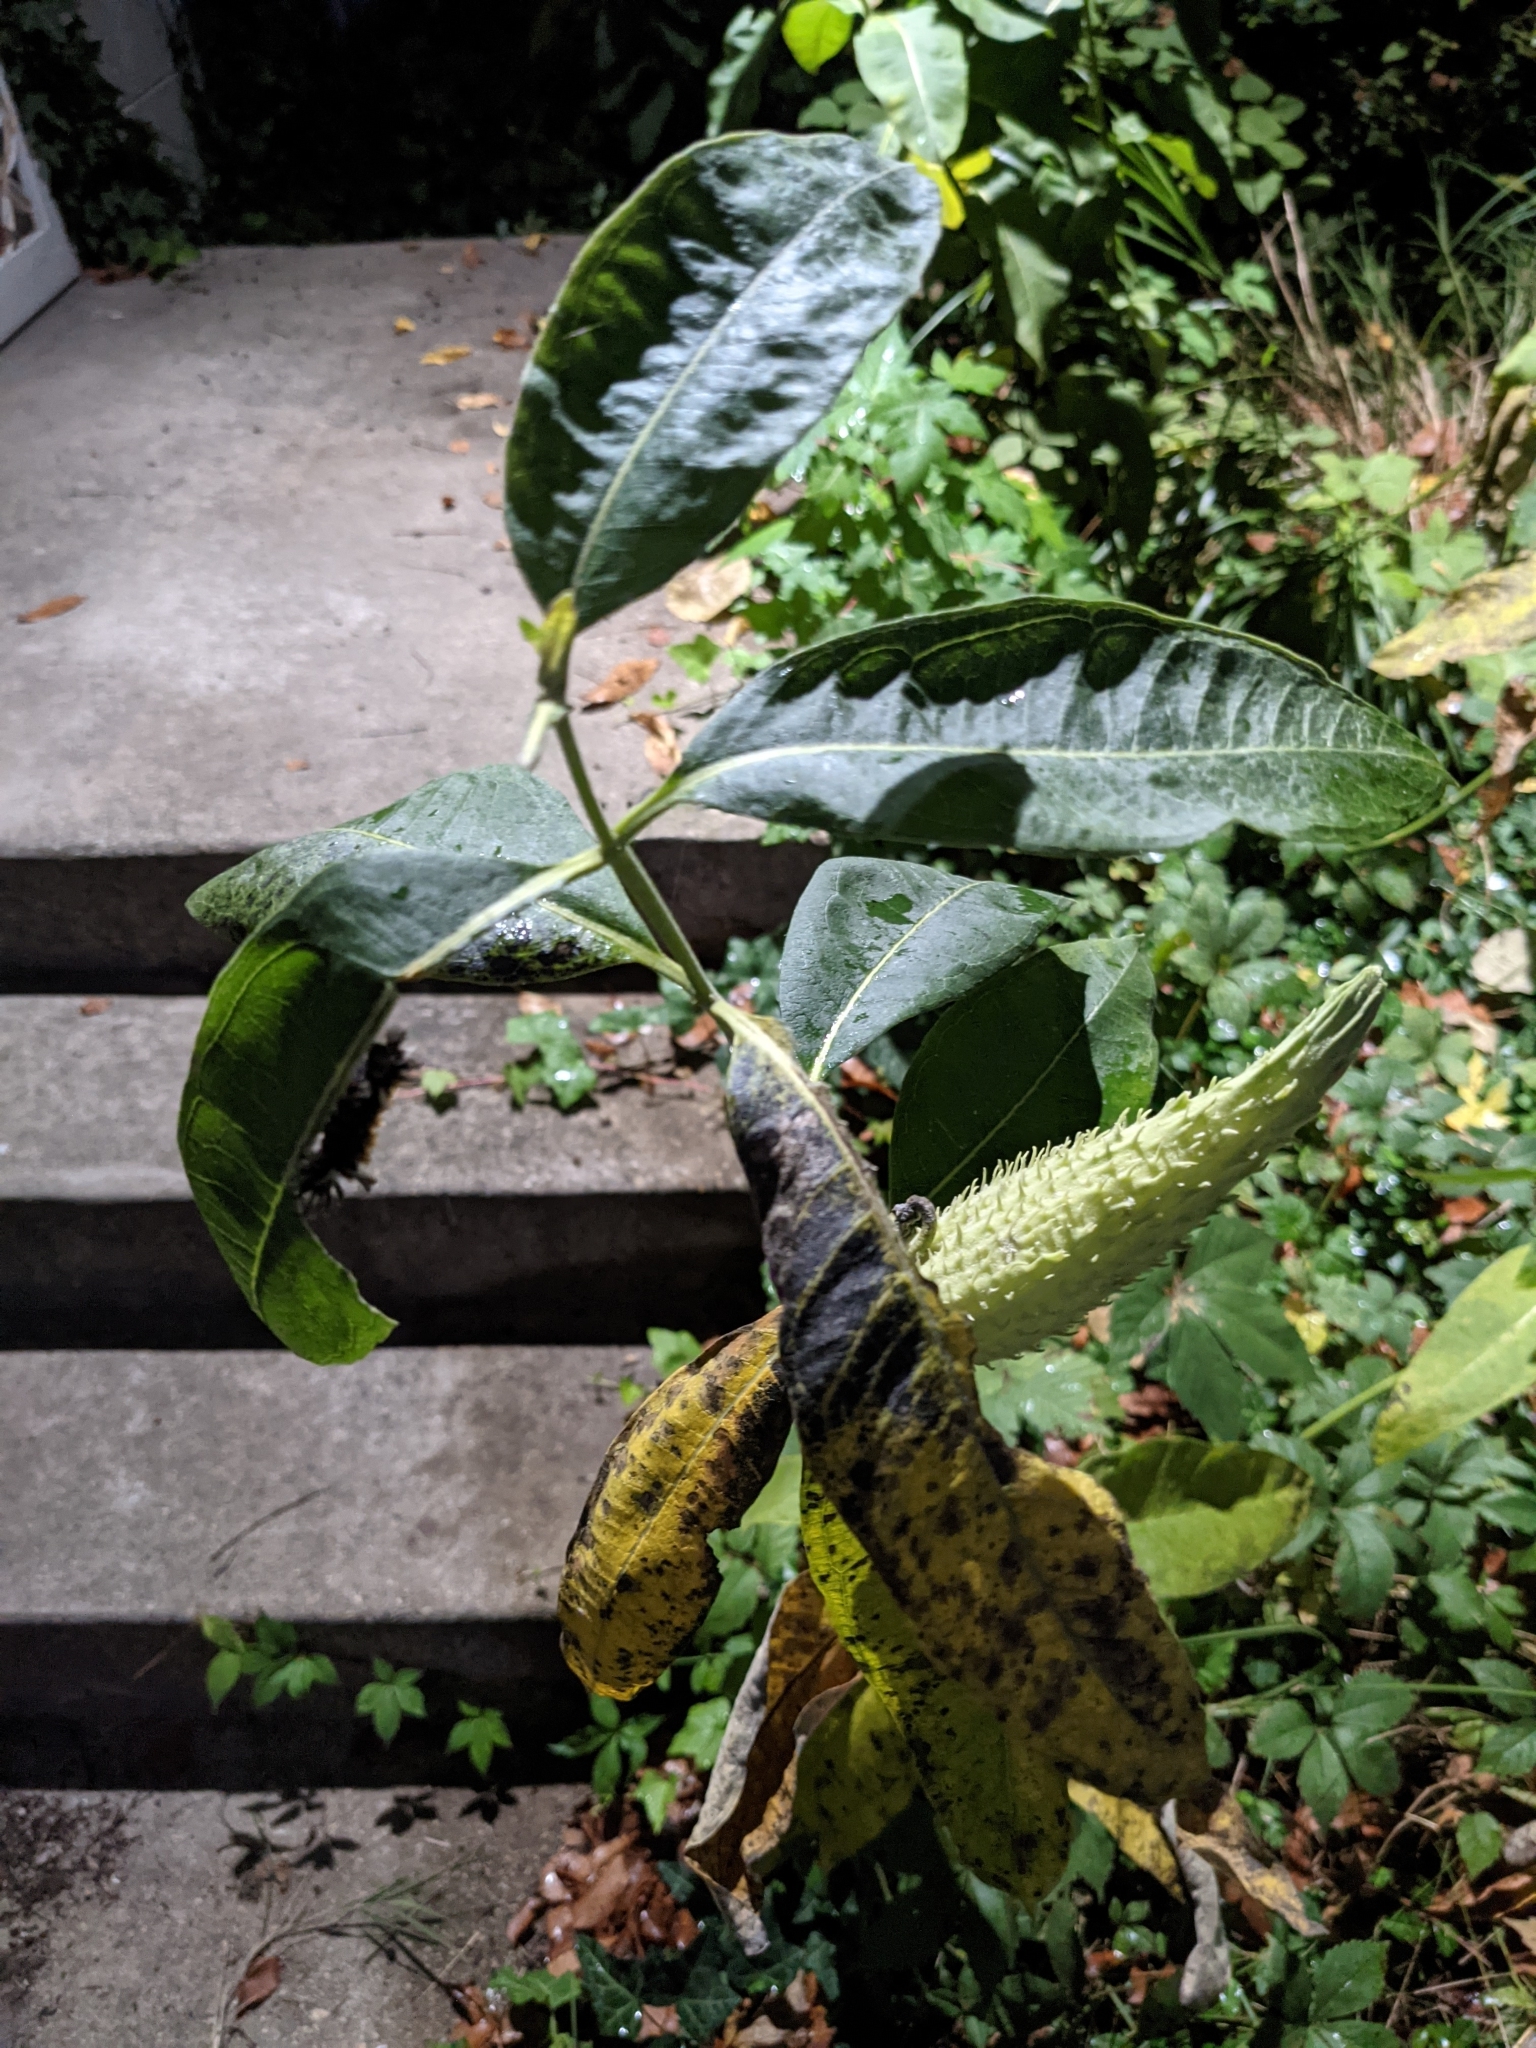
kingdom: Plantae
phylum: Tracheophyta
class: Magnoliopsida
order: Gentianales
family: Apocynaceae
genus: Asclepias
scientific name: Asclepias syriaca
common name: Common milkweed
